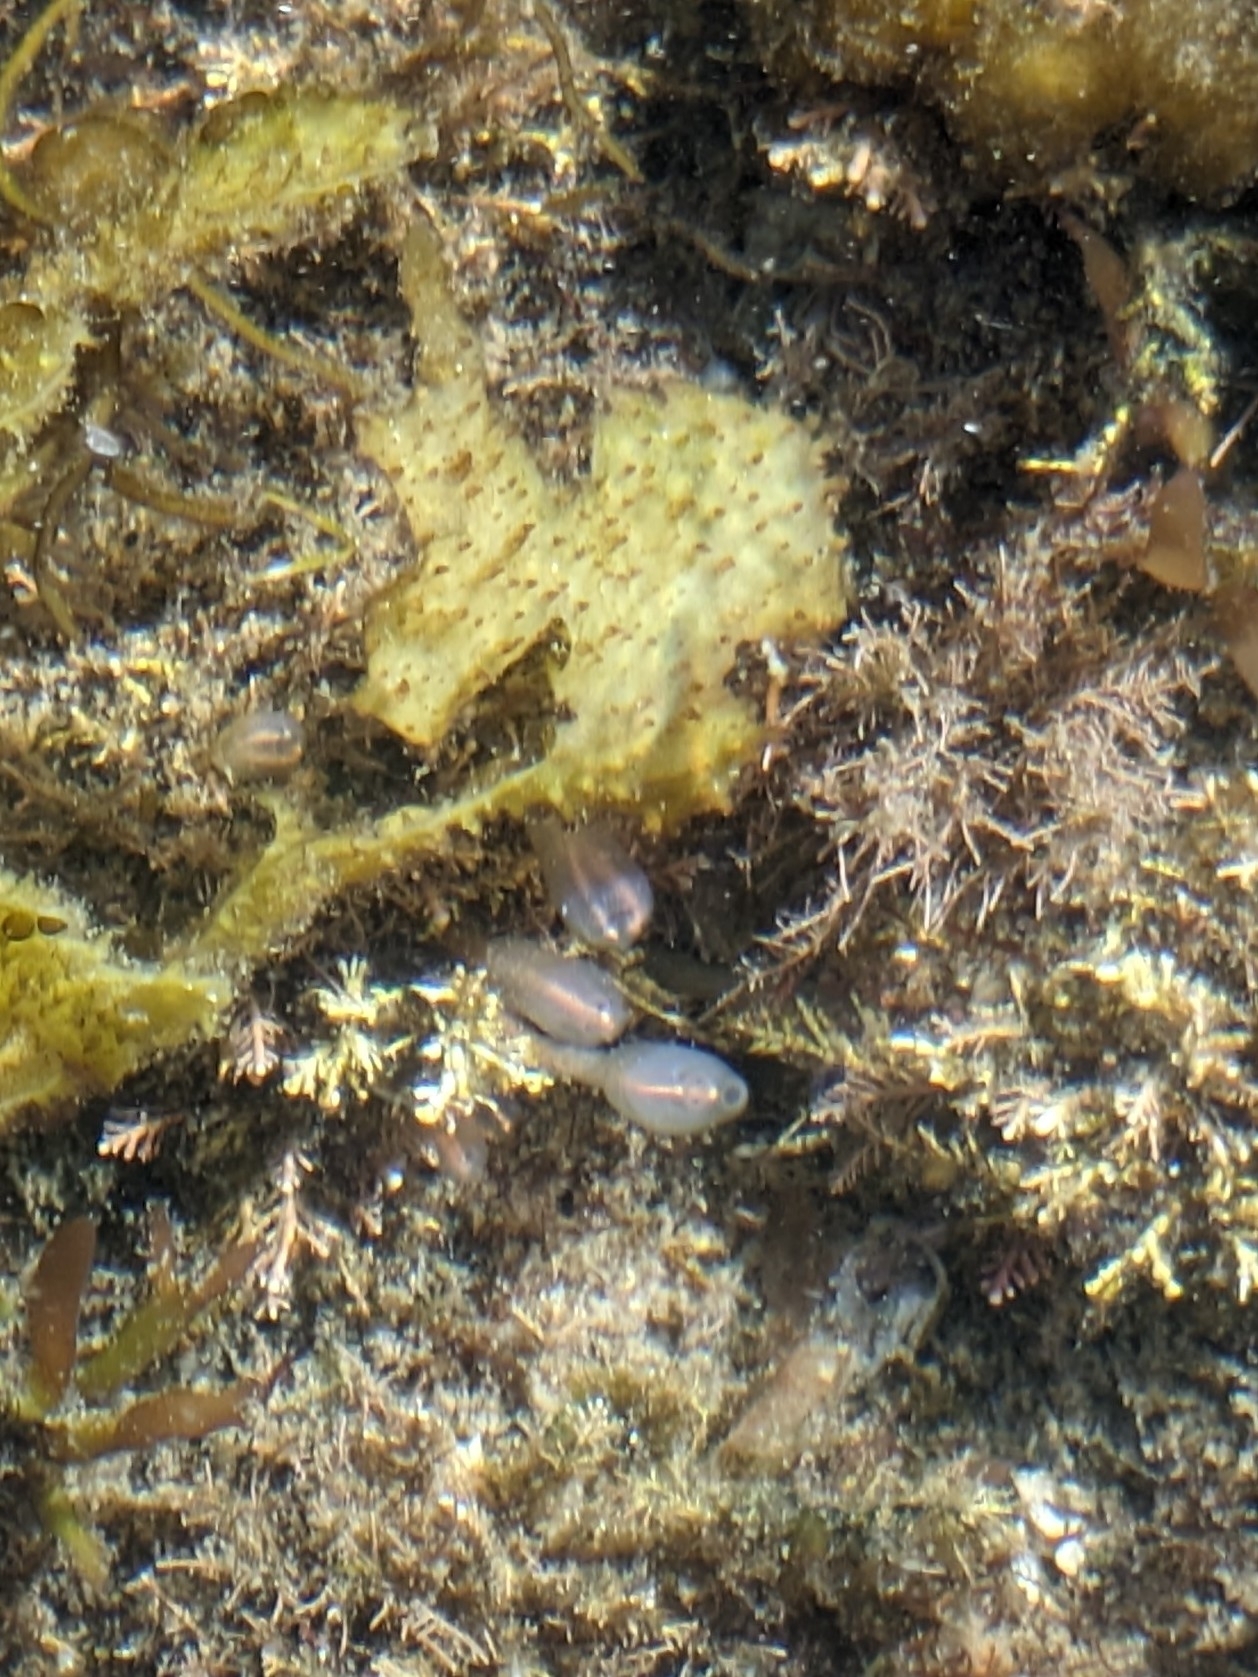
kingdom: Animalia
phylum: Chordata
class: Ascidiacea
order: Aplousobranchia
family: Clavelinidae
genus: Clavelina
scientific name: Clavelina huntsmani
